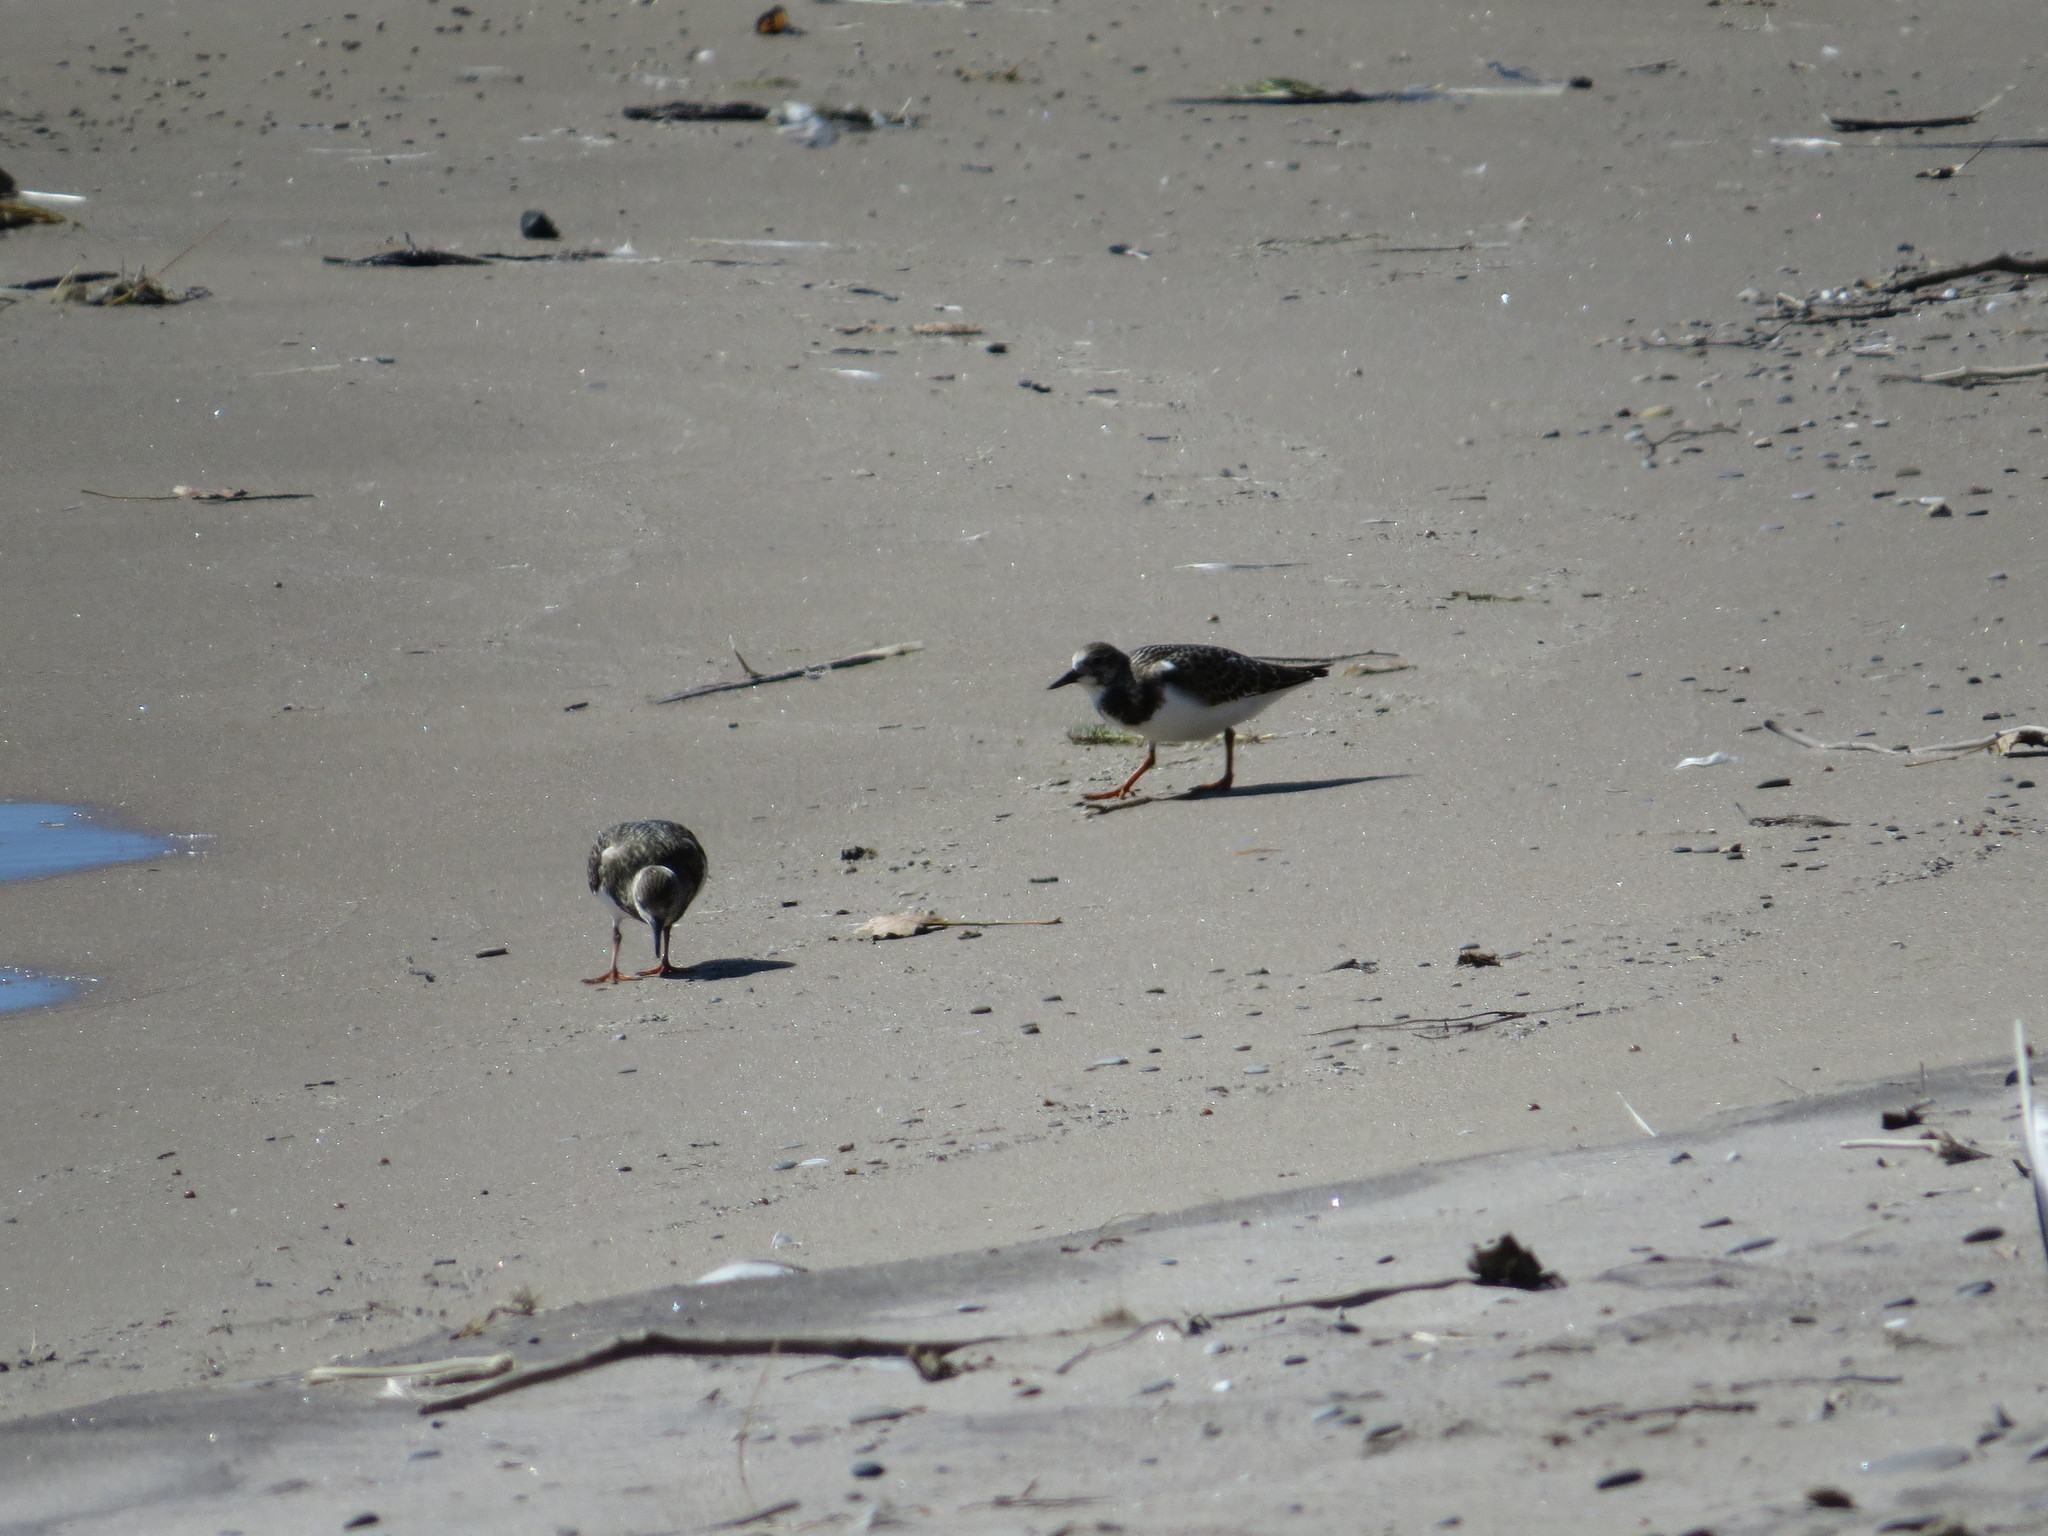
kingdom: Animalia
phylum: Chordata
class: Aves
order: Charadriiformes
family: Scolopacidae
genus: Arenaria
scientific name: Arenaria interpres
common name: Ruddy turnstone
